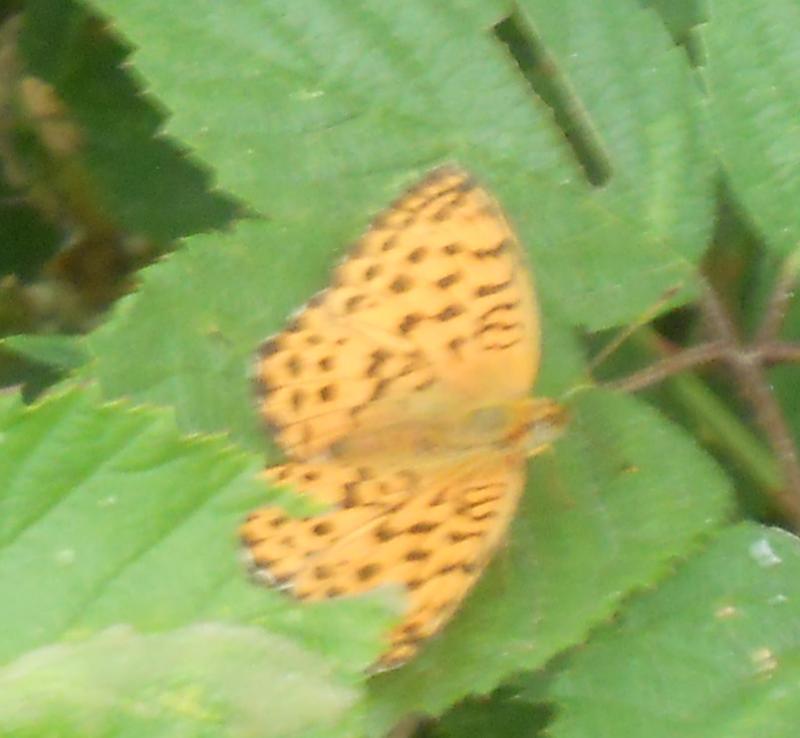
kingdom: Animalia
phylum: Arthropoda
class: Insecta
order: Lepidoptera
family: Nymphalidae
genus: Brenthis
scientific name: Brenthis daphne
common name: Marbled fritillary
